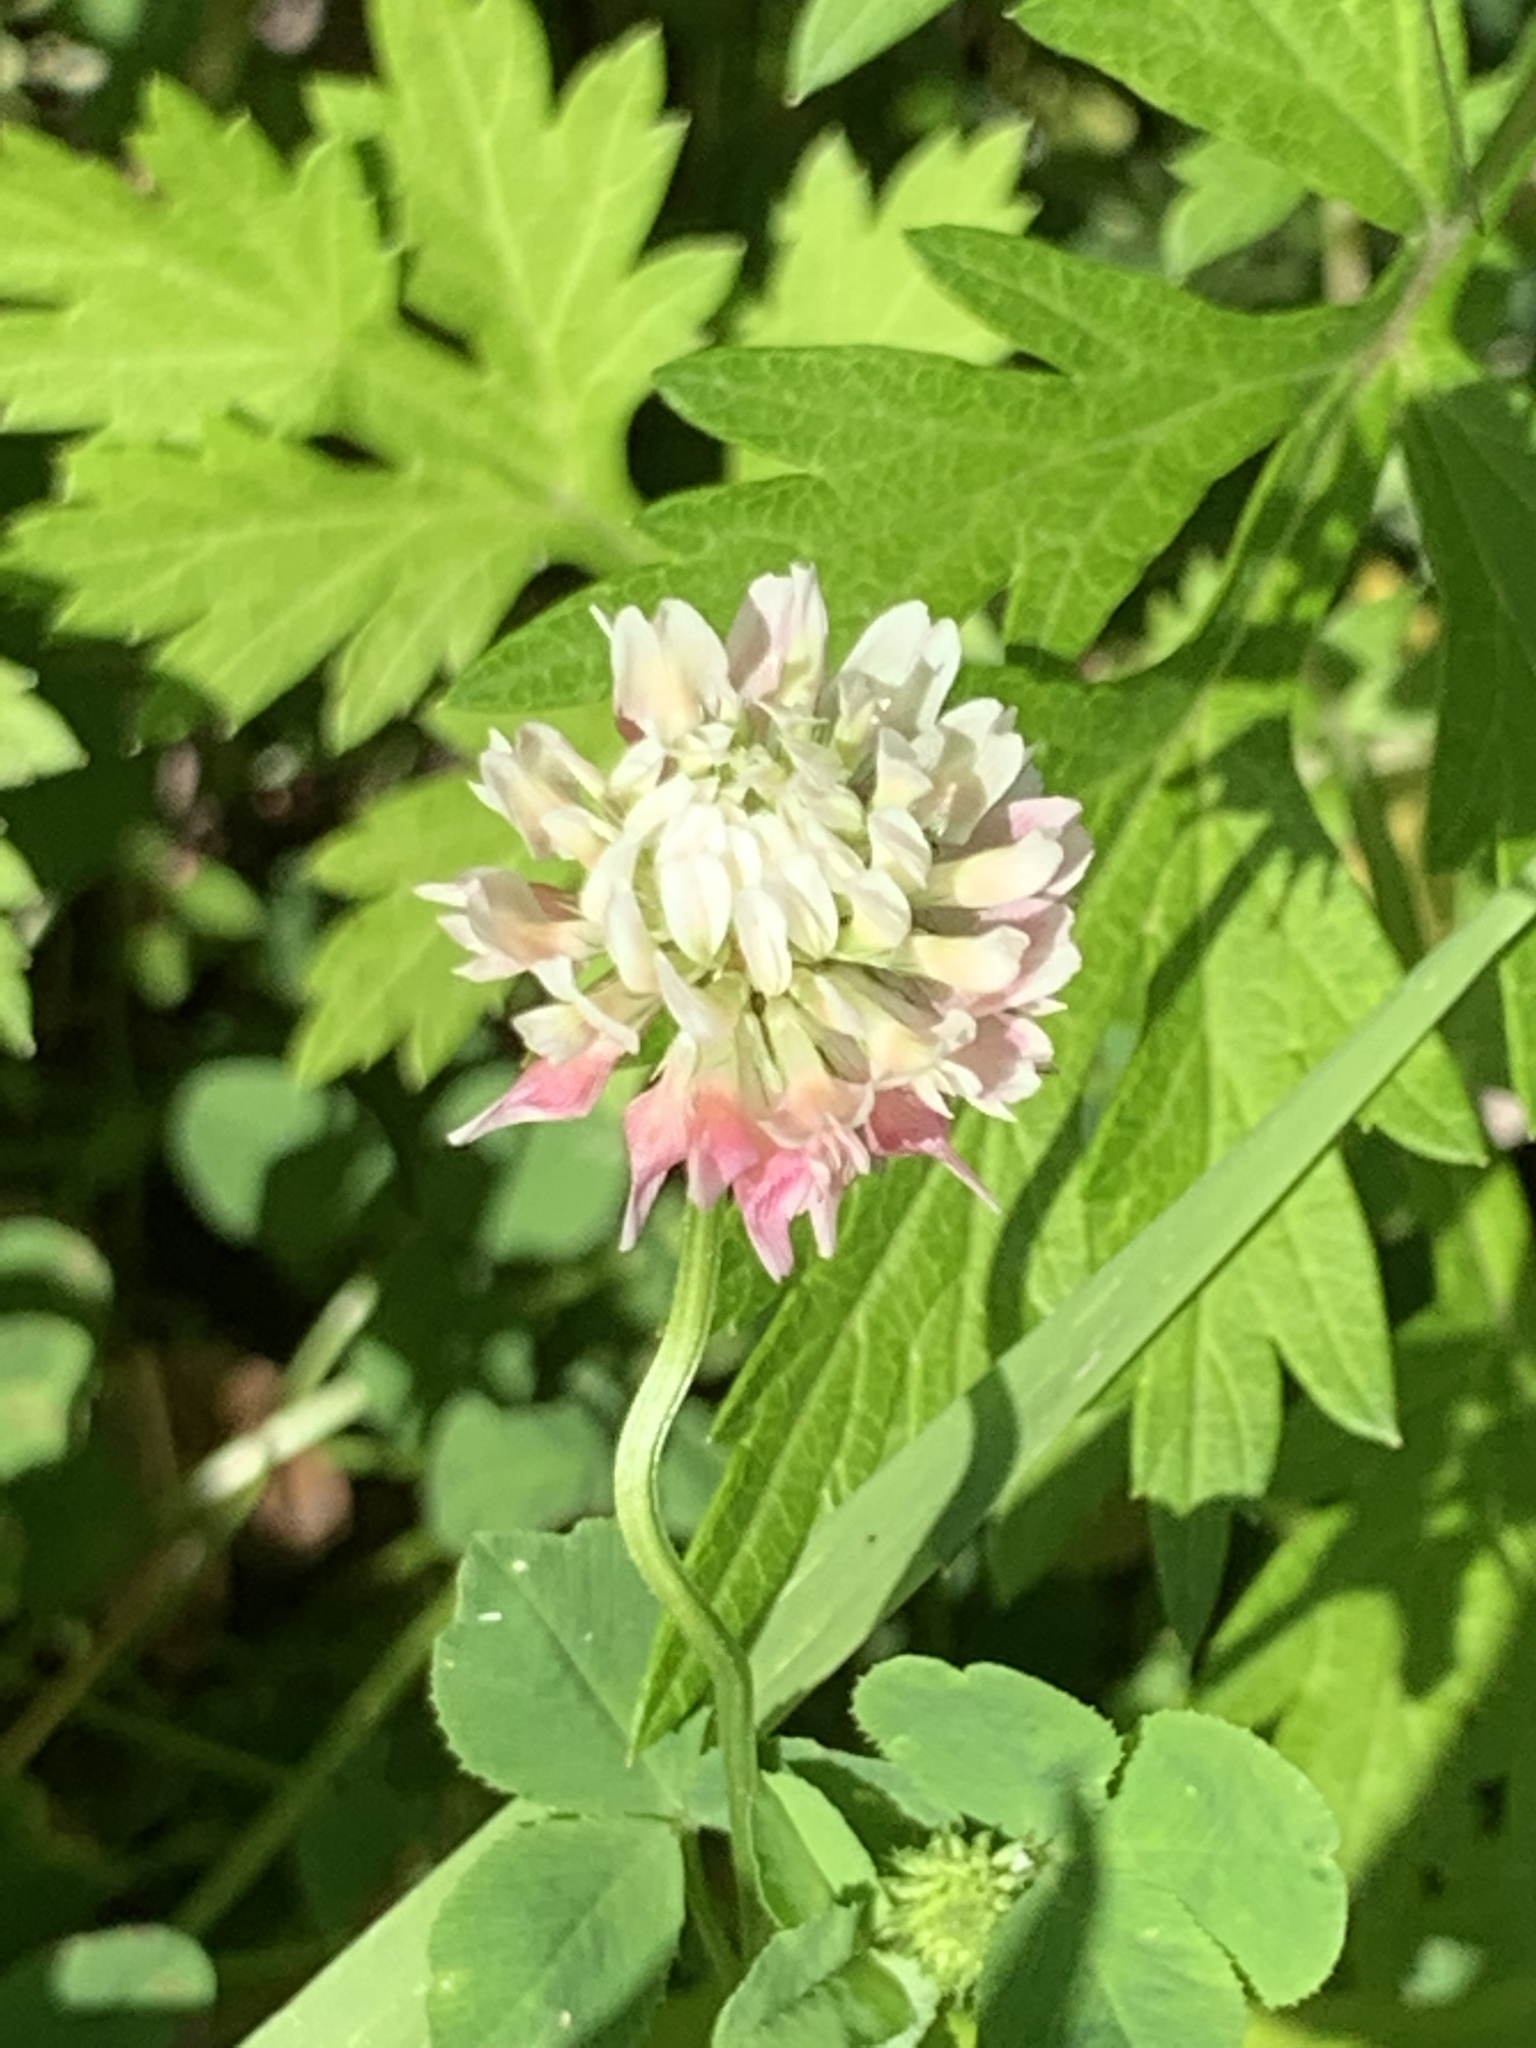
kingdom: Plantae
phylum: Tracheophyta
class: Magnoliopsida
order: Fabales
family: Fabaceae
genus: Trifolium
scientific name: Trifolium hybridum
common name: Alsike clover
